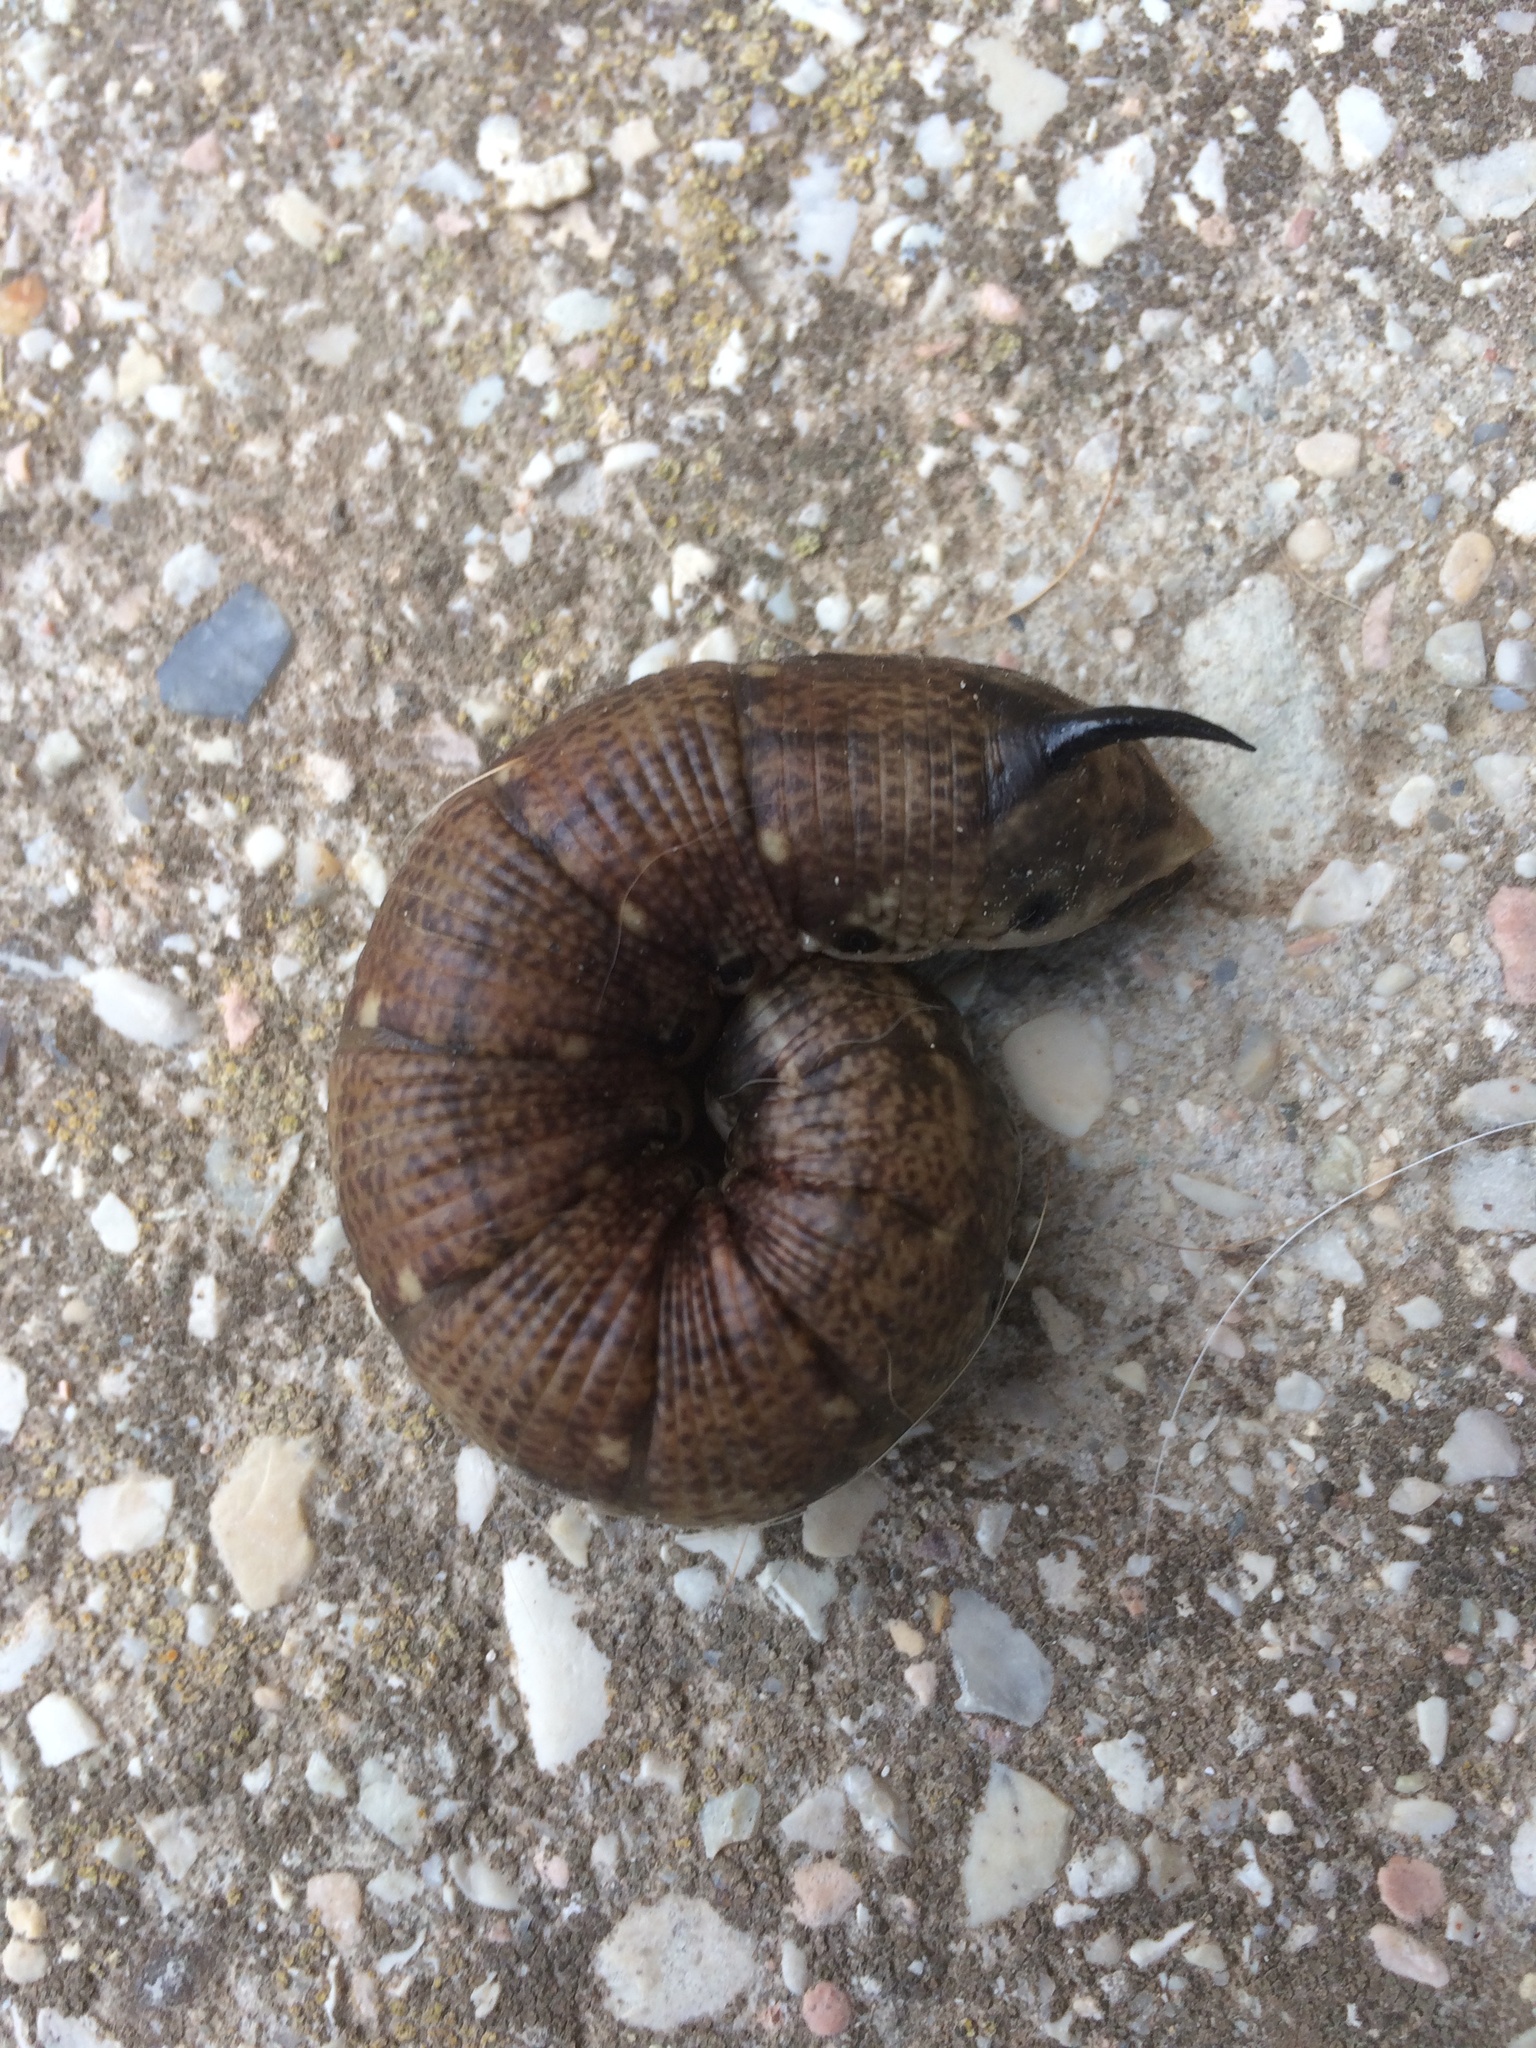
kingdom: Animalia
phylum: Arthropoda
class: Insecta
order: Lepidoptera
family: Sphingidae
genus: Agrius
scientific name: Agrius convolvuli
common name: Convolvulus hawkmoth
